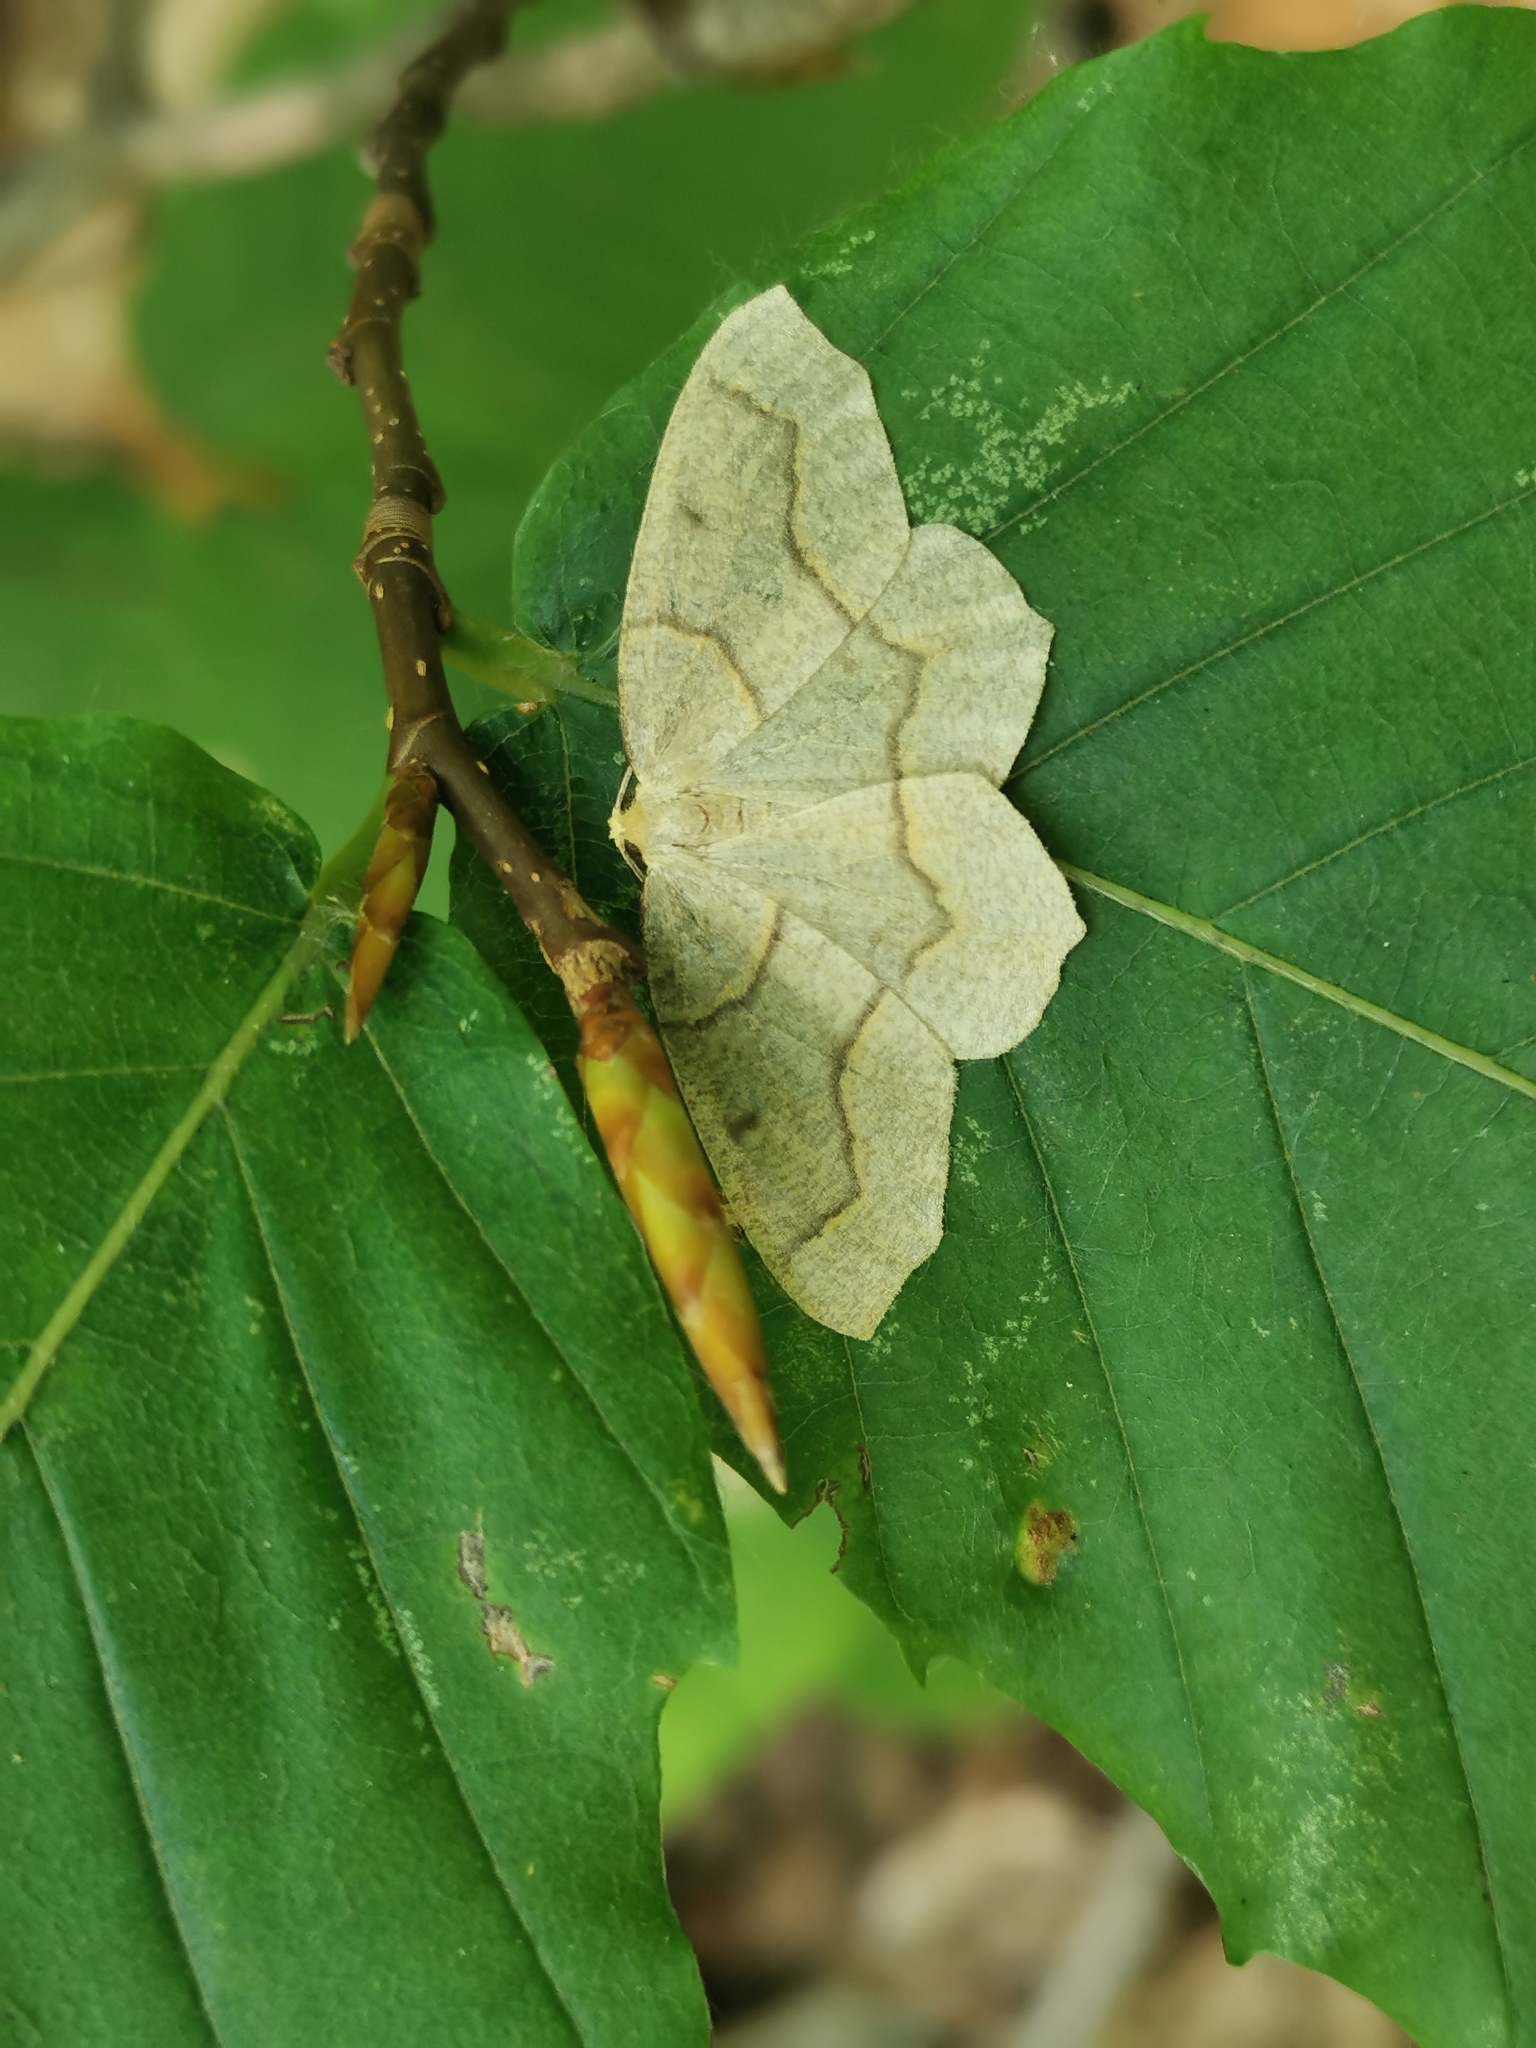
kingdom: Animalia
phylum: Arthropoda
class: Insecta
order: Lepidoptera
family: Geometridae
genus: Lambdina
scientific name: Lambdina fiscellaria
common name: Hemlock looper
